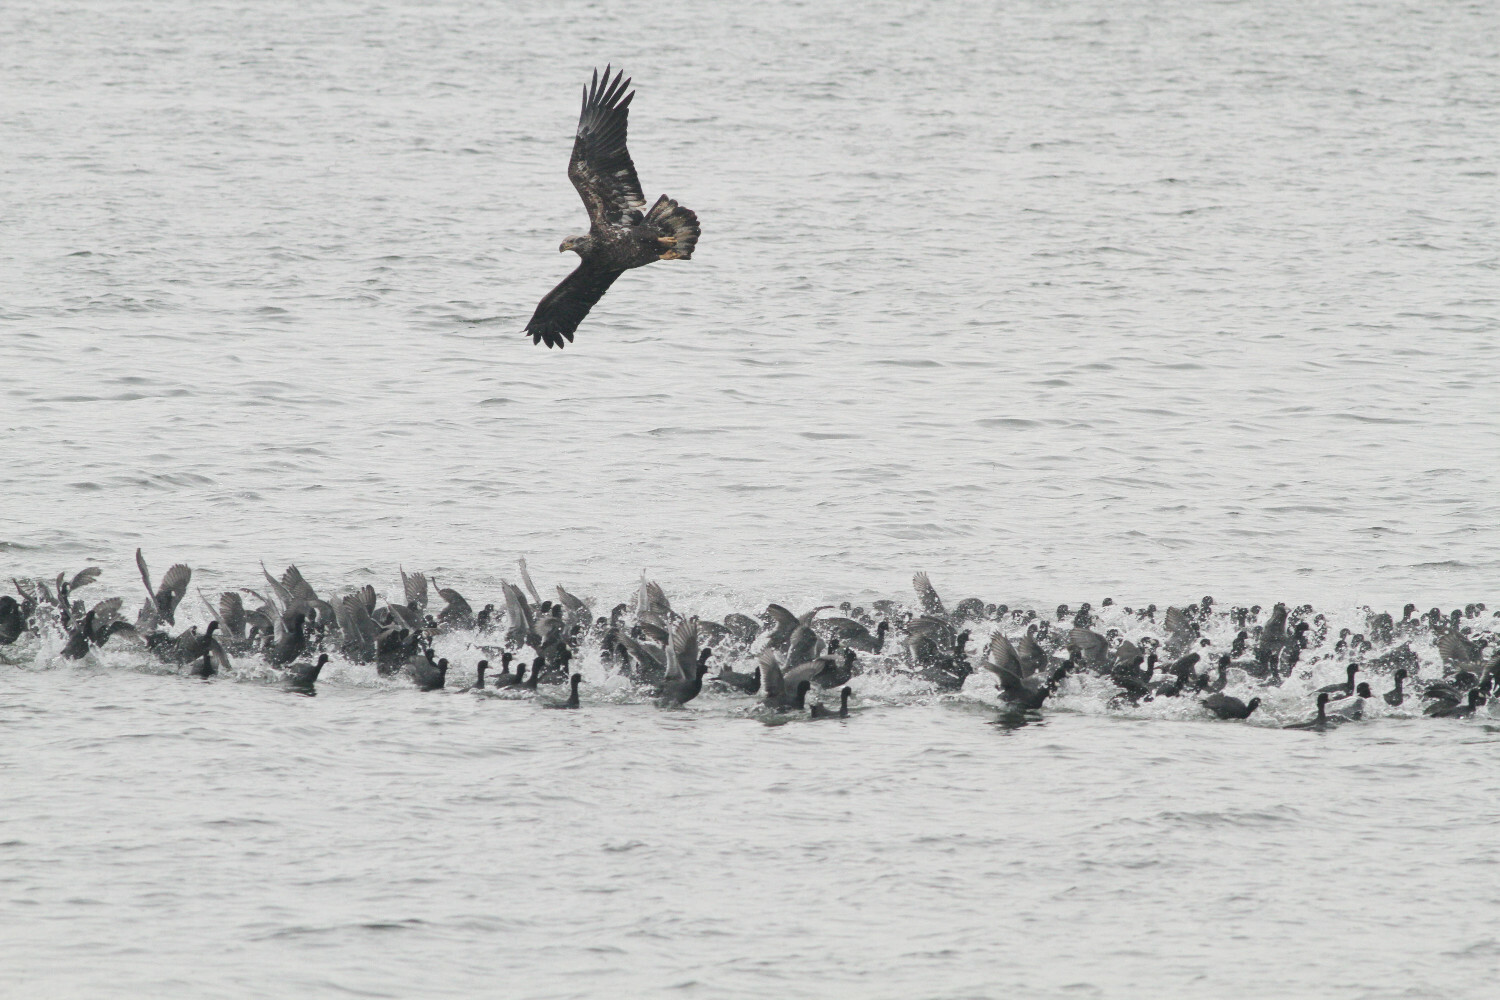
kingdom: Animalia
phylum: Chordata
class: Aves
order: Accipitriformes
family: Accipitridae
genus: Haliaeetus
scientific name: Haliaeetus leucocephalus
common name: Bald eagle
